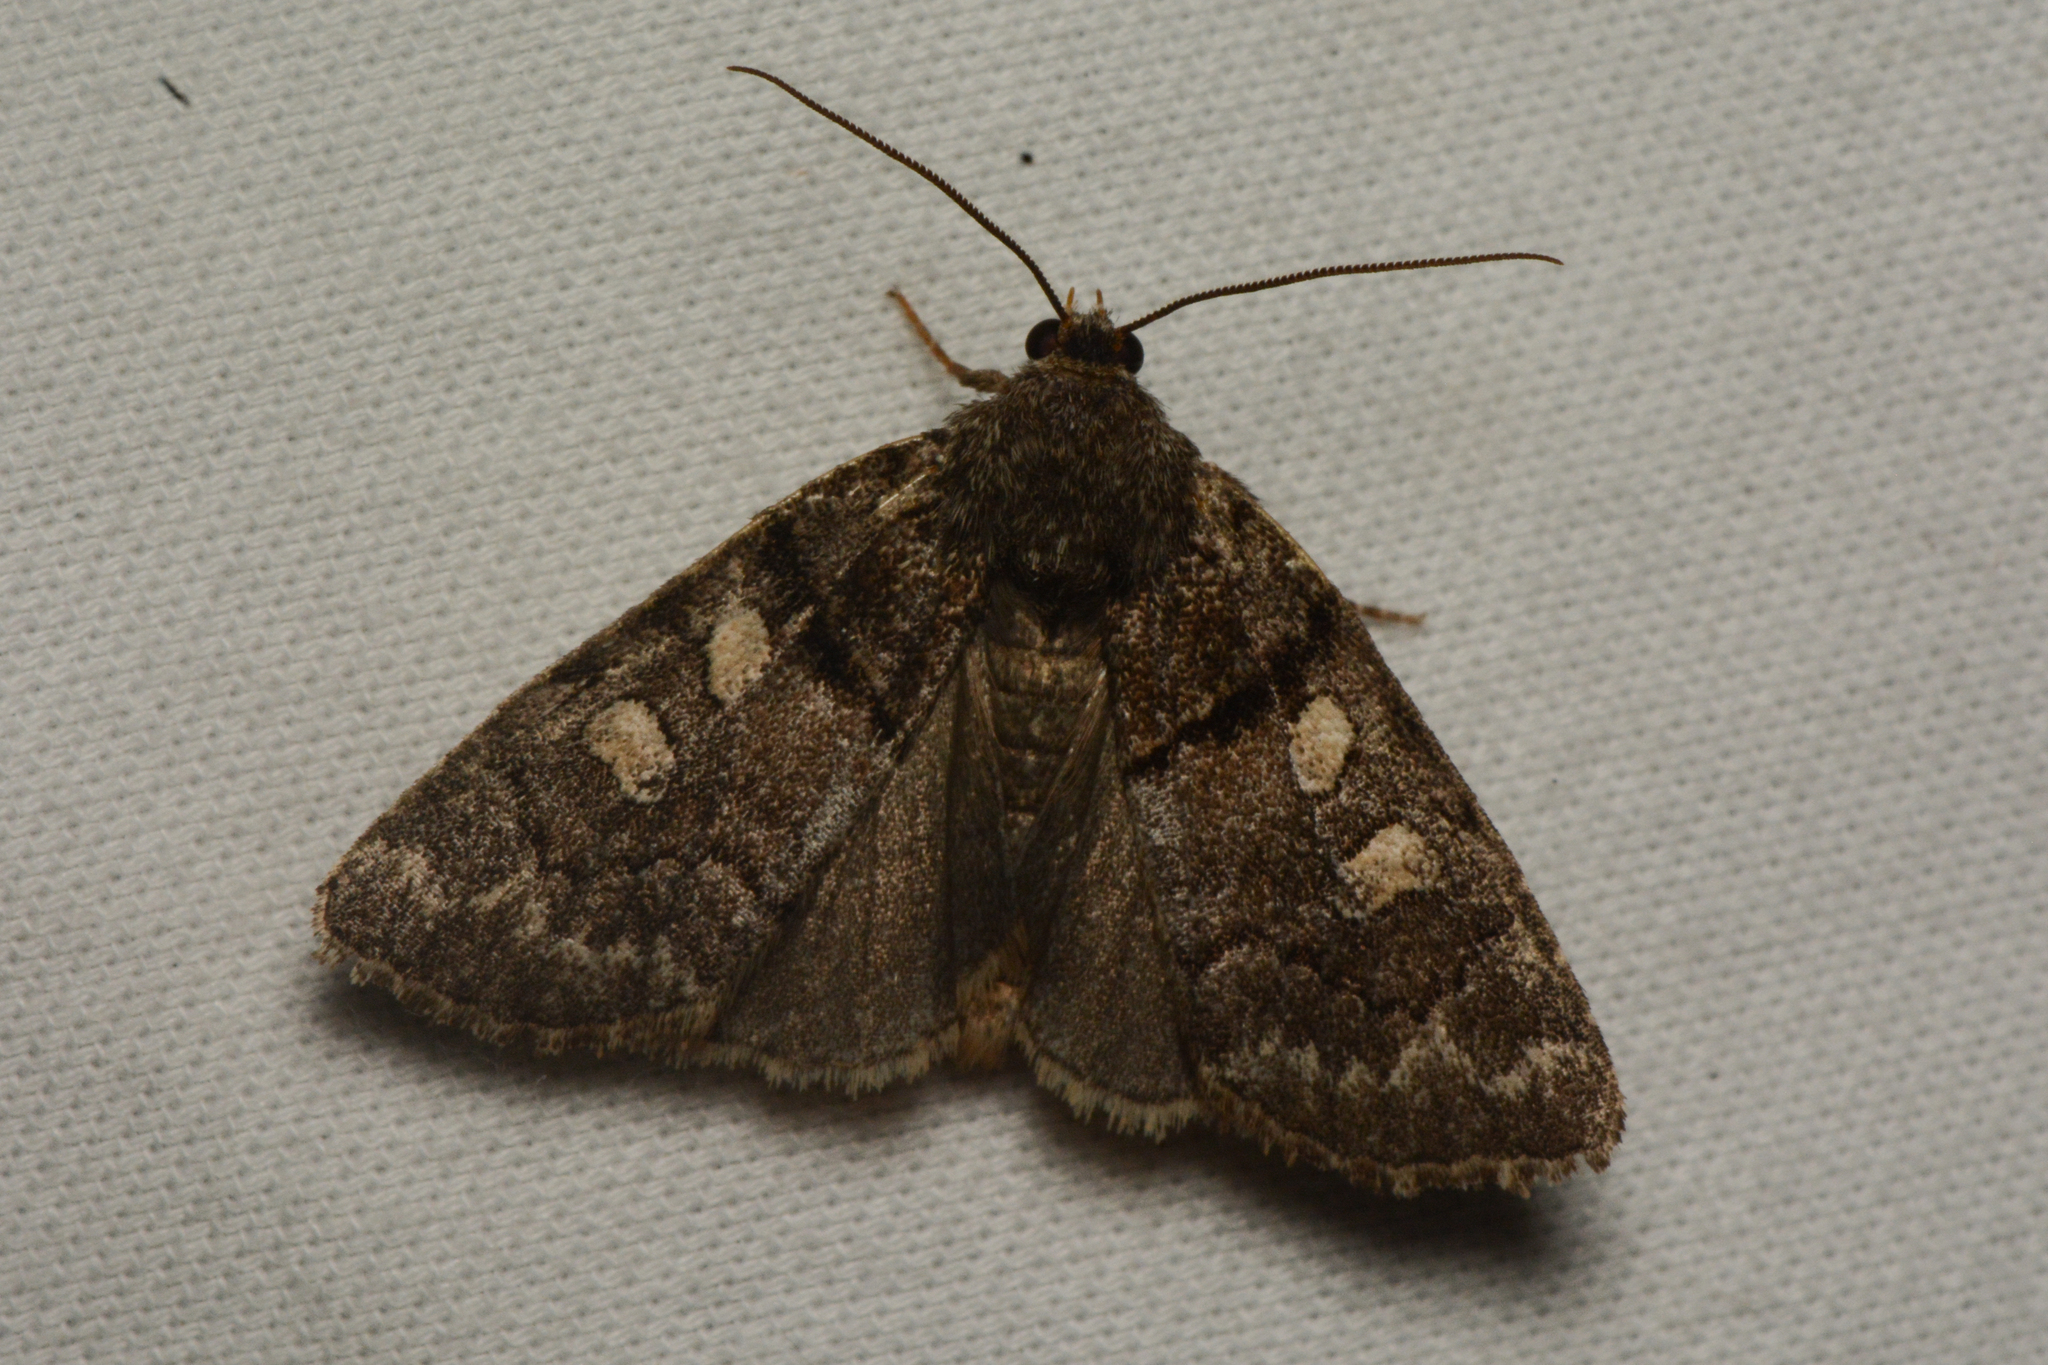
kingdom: Animalia
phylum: Arthropoda
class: Insecta
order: Lepidoptera
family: Noctuidae
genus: Cosmia
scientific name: Cosmia praeacuta
